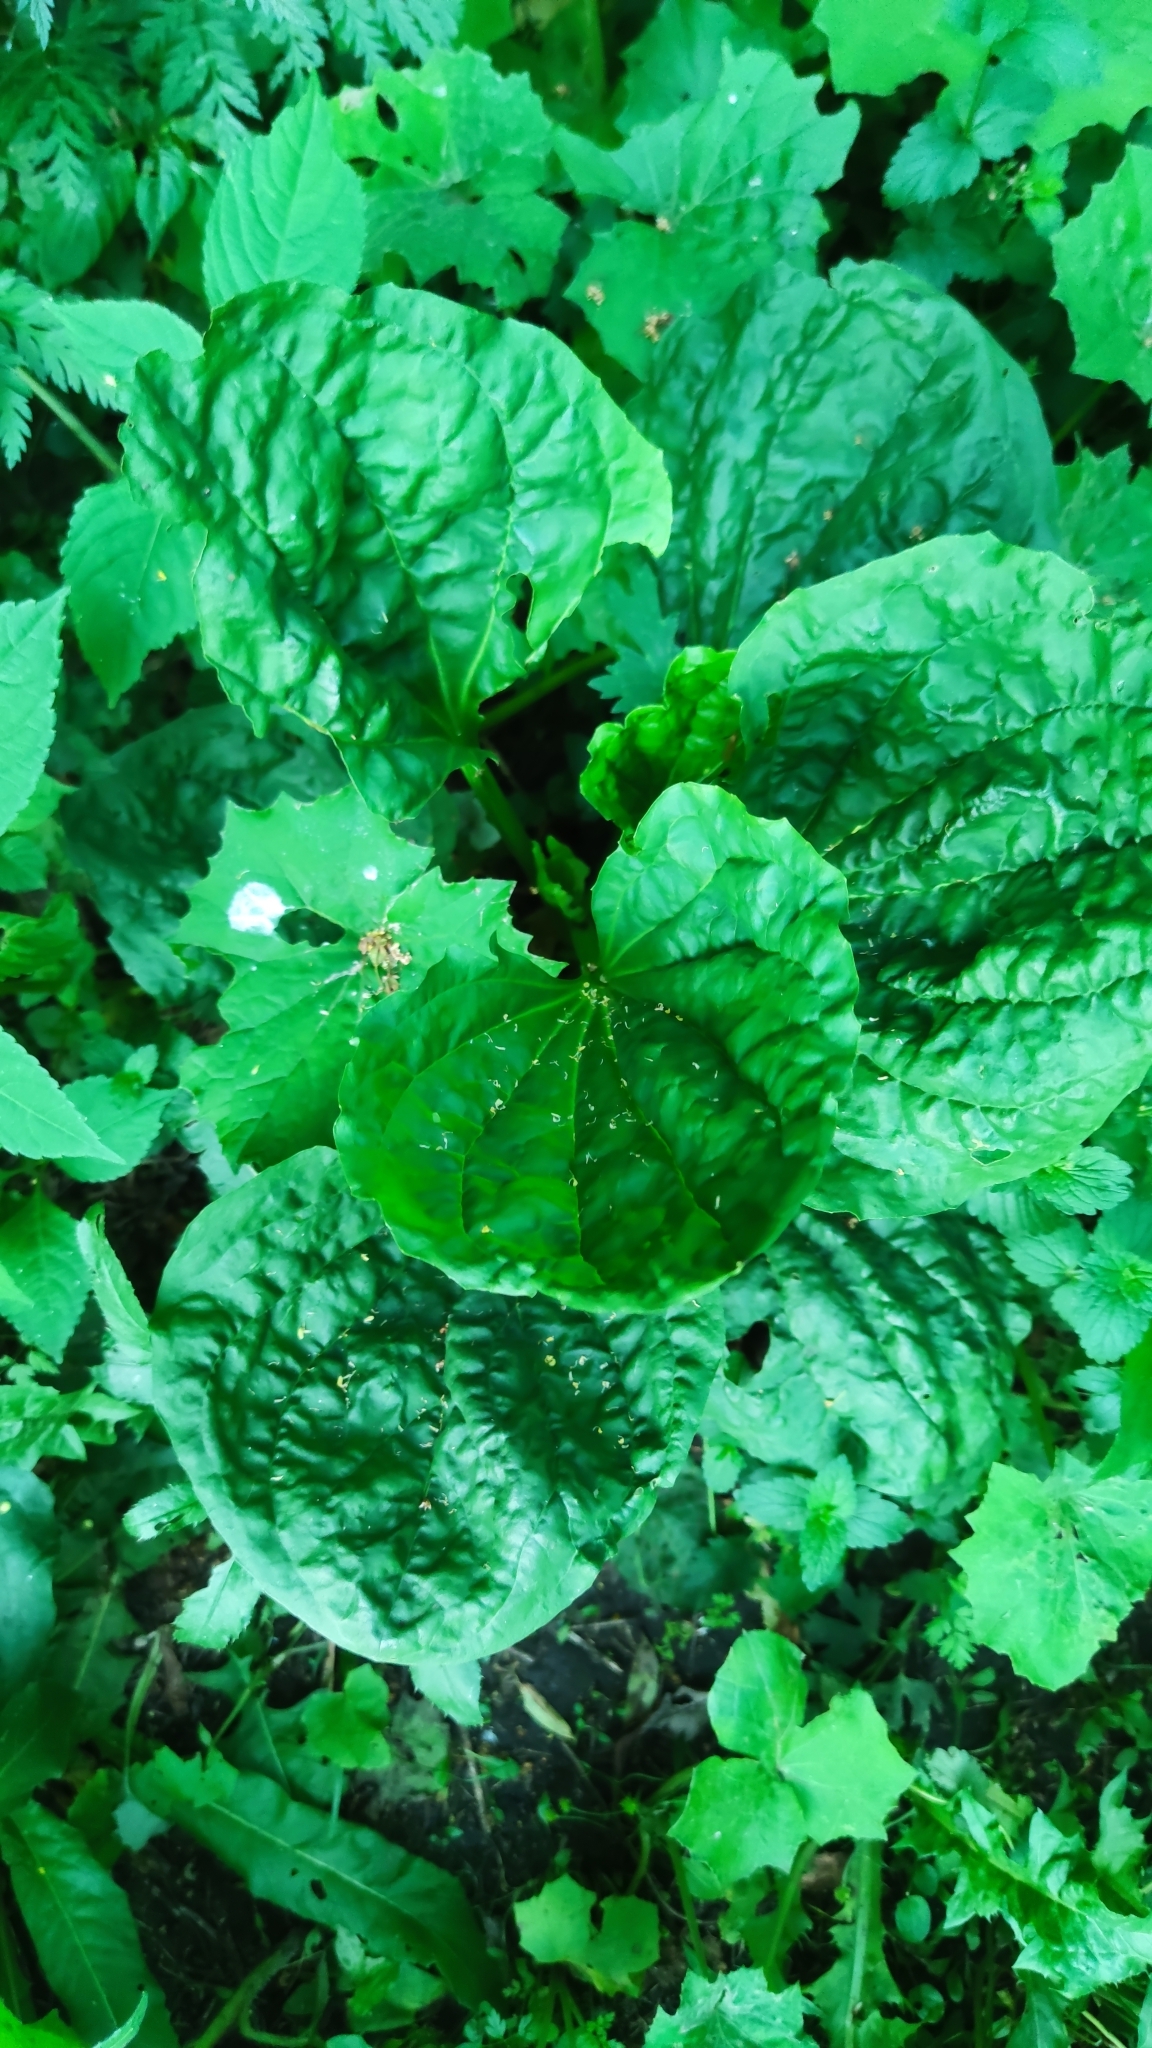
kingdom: Plantae
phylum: Tracheophyta
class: Magnoliopsida
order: Lamiales
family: Plantaginaceae
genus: Plantago
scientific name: Plantago major
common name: Common plantain
